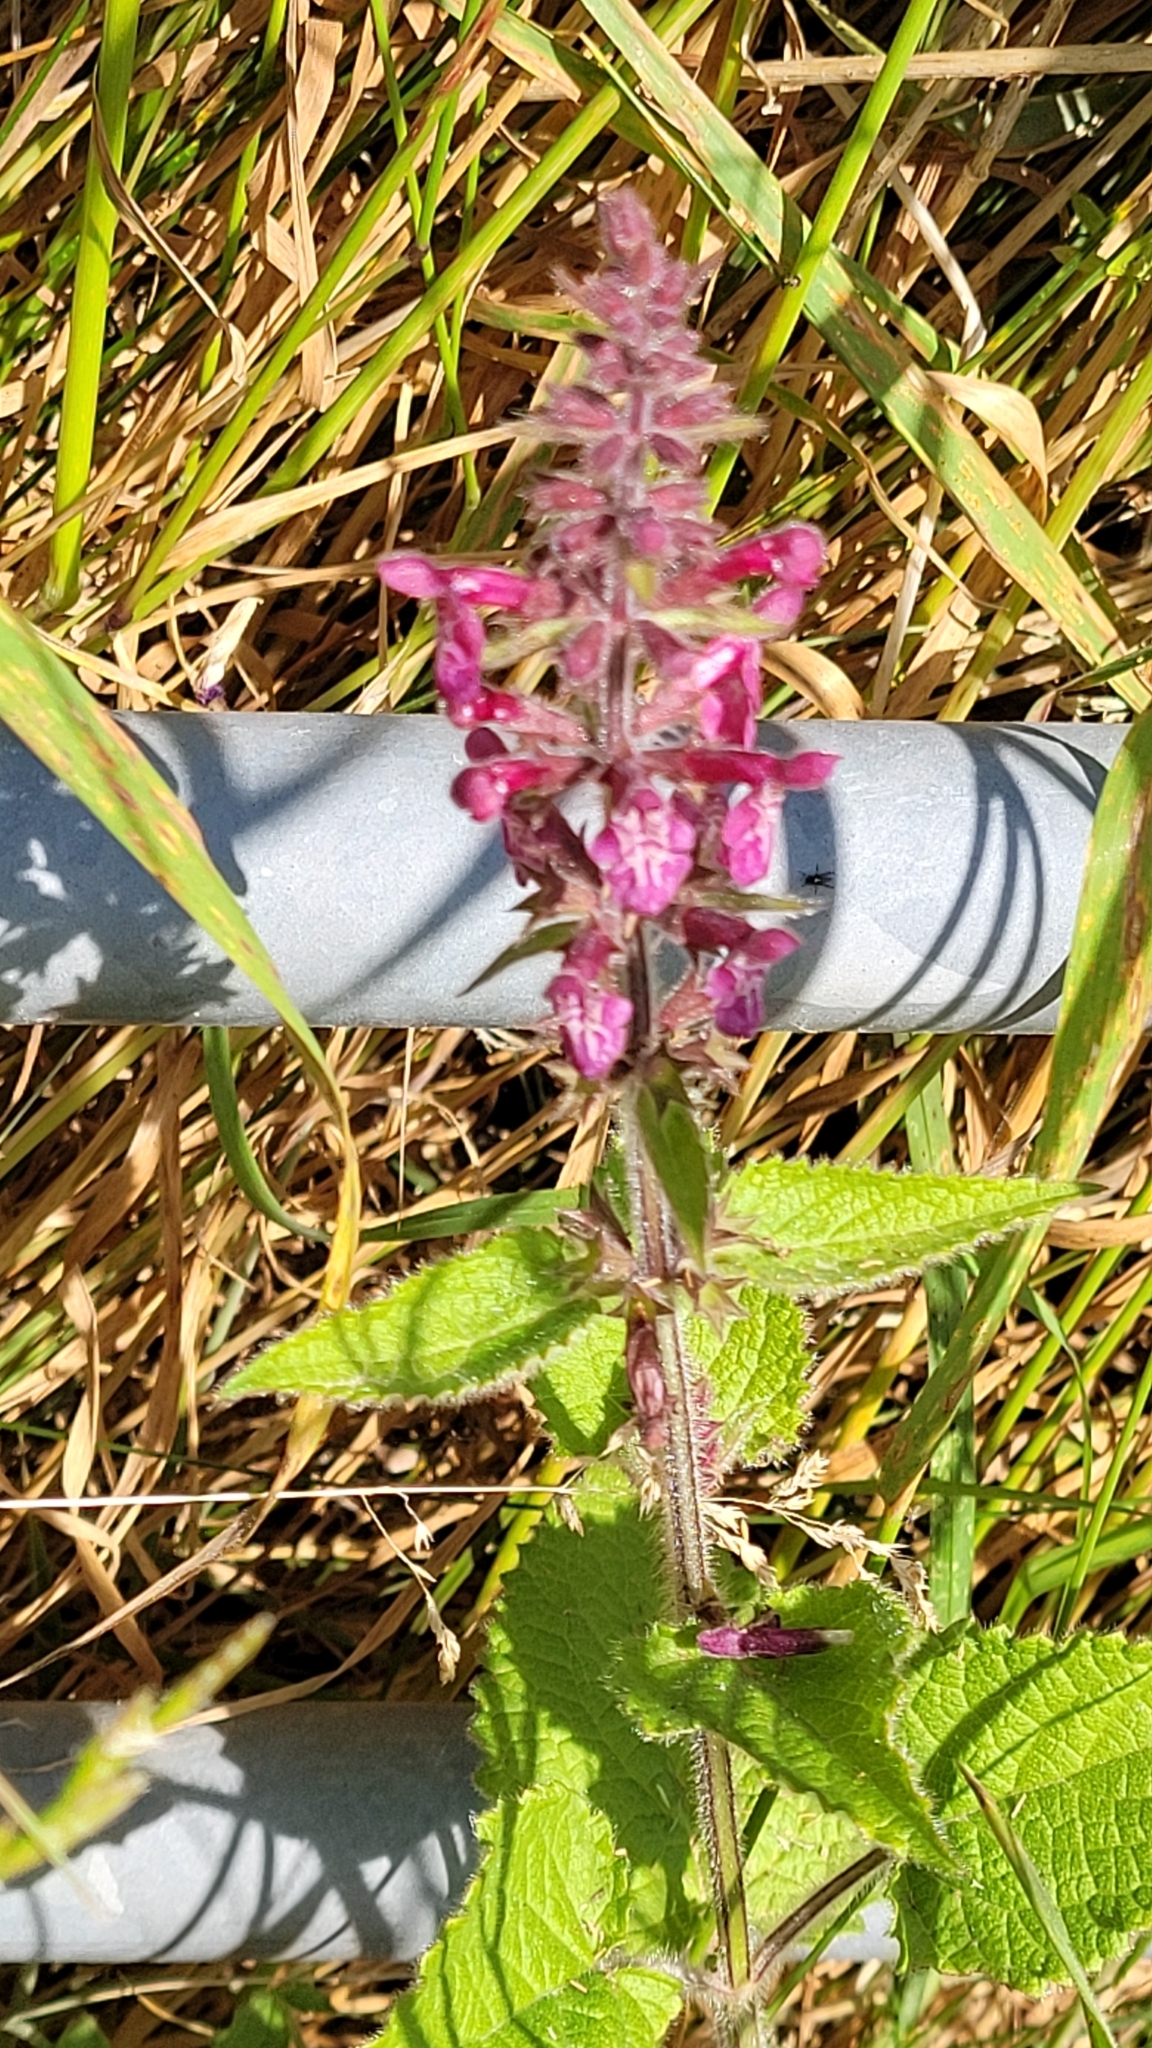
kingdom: Plantae
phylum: Tracheophyta
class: Magnoliopsida
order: Lamiales
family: Lamiaceae
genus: Stachys
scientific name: Stachys sylvatica
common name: Hedge woundwort
